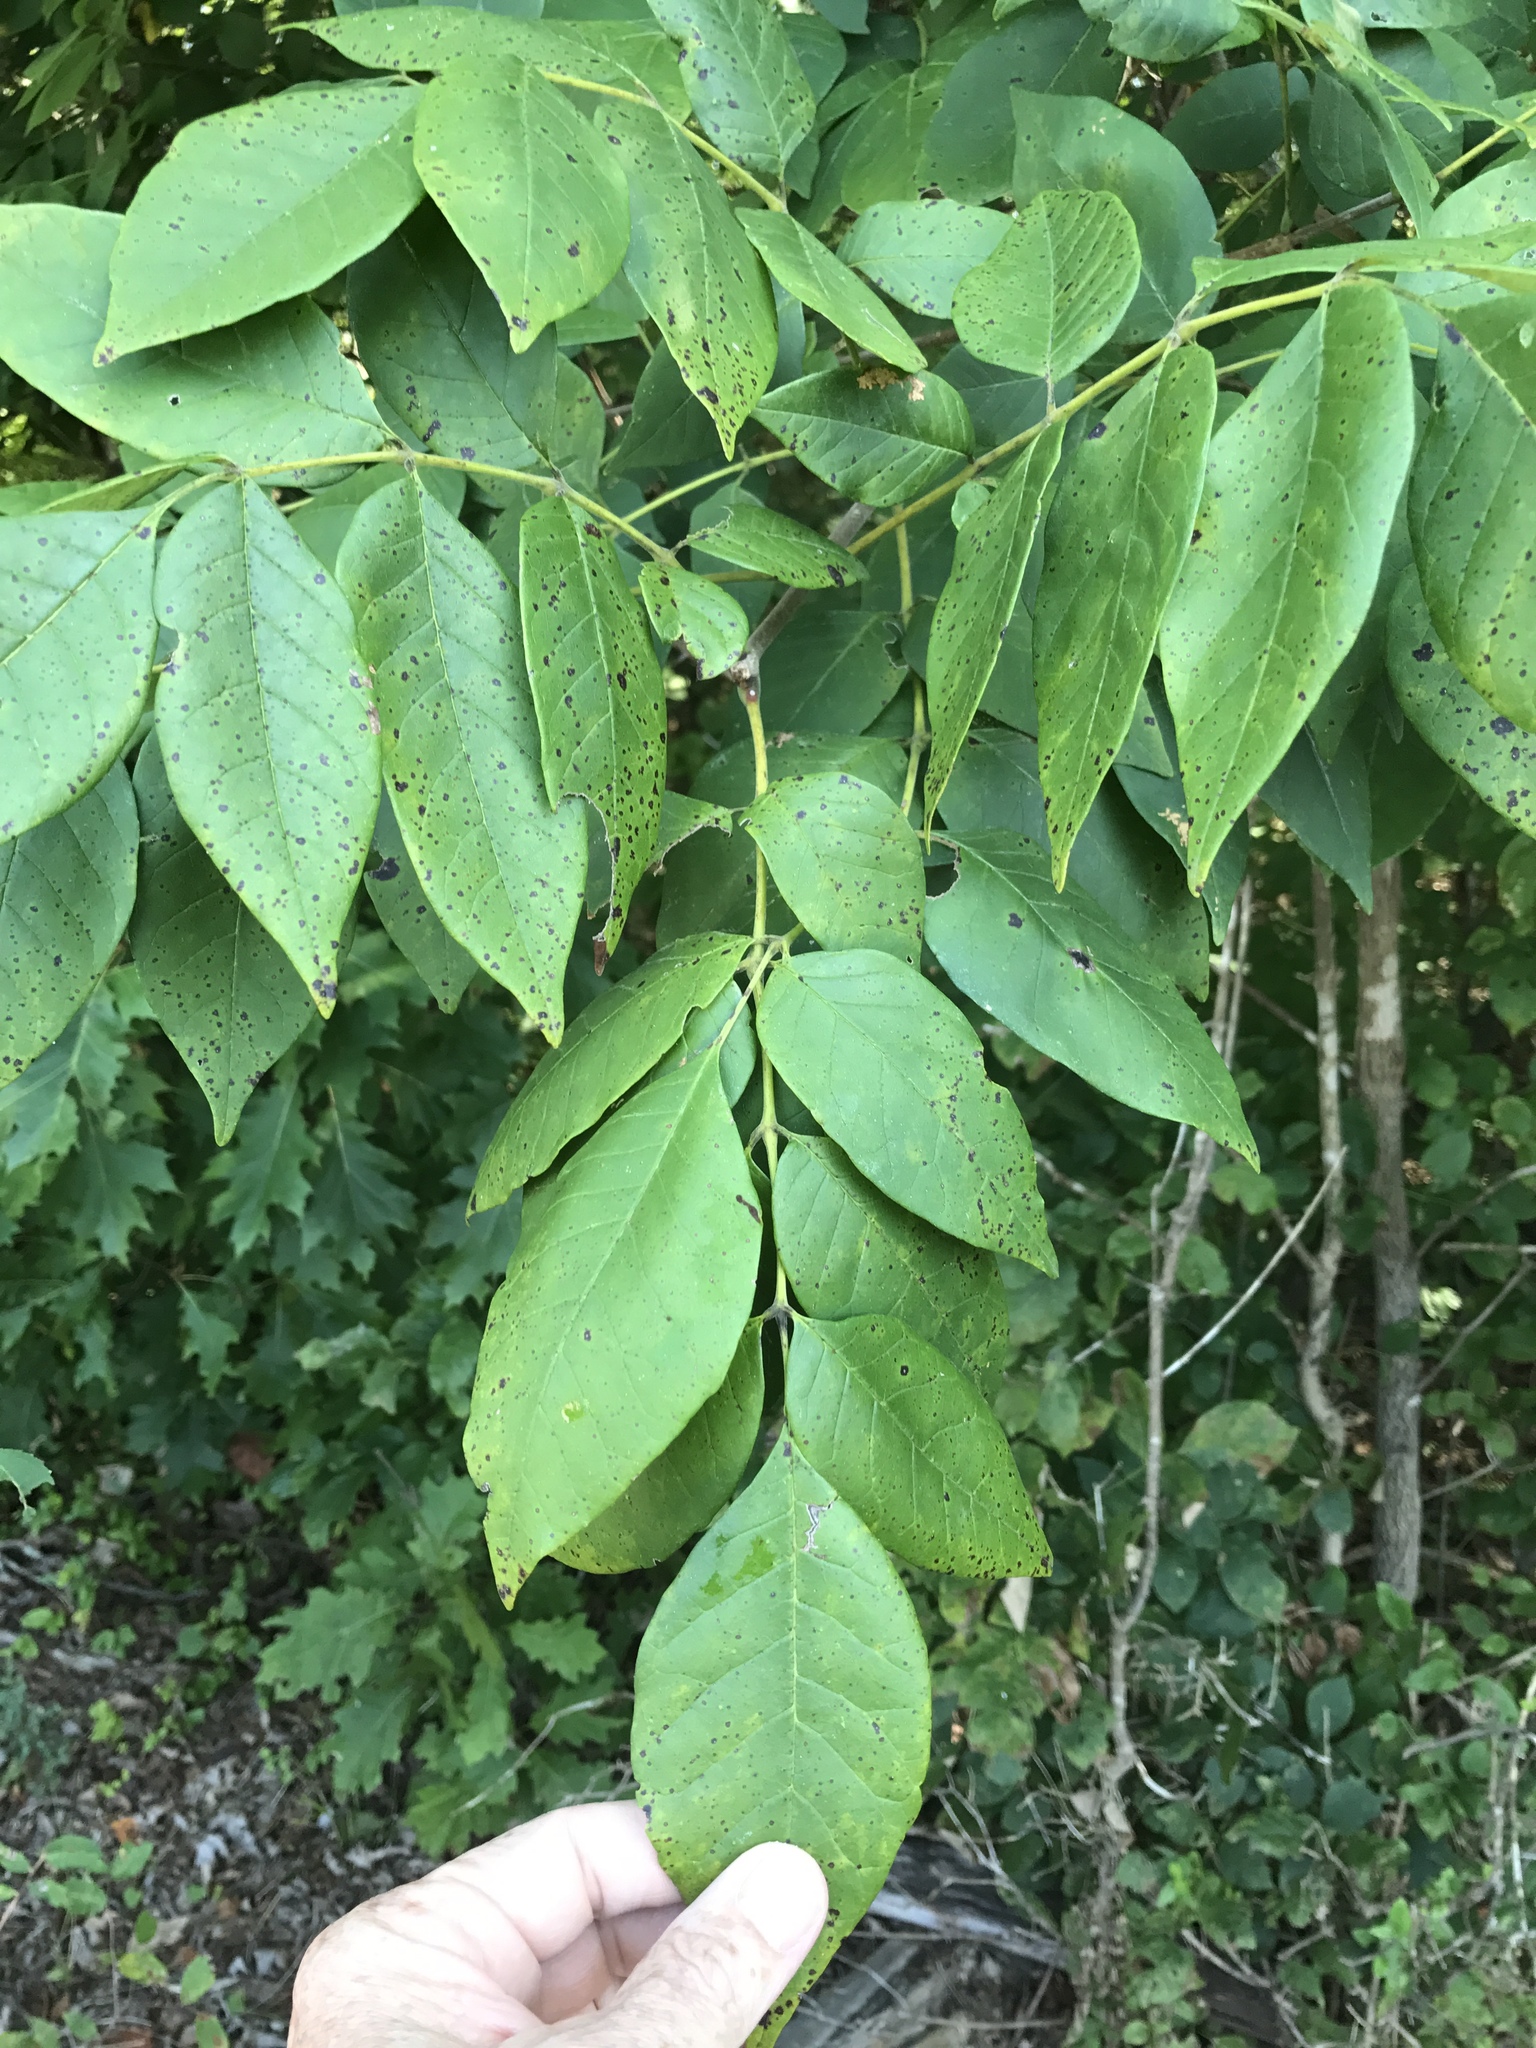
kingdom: Plantae
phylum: Tracheophyta
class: Magnoliopsida
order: Lamiales
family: Oleaceae
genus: Fraxinus
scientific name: Fraxinus americana
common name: White ash
